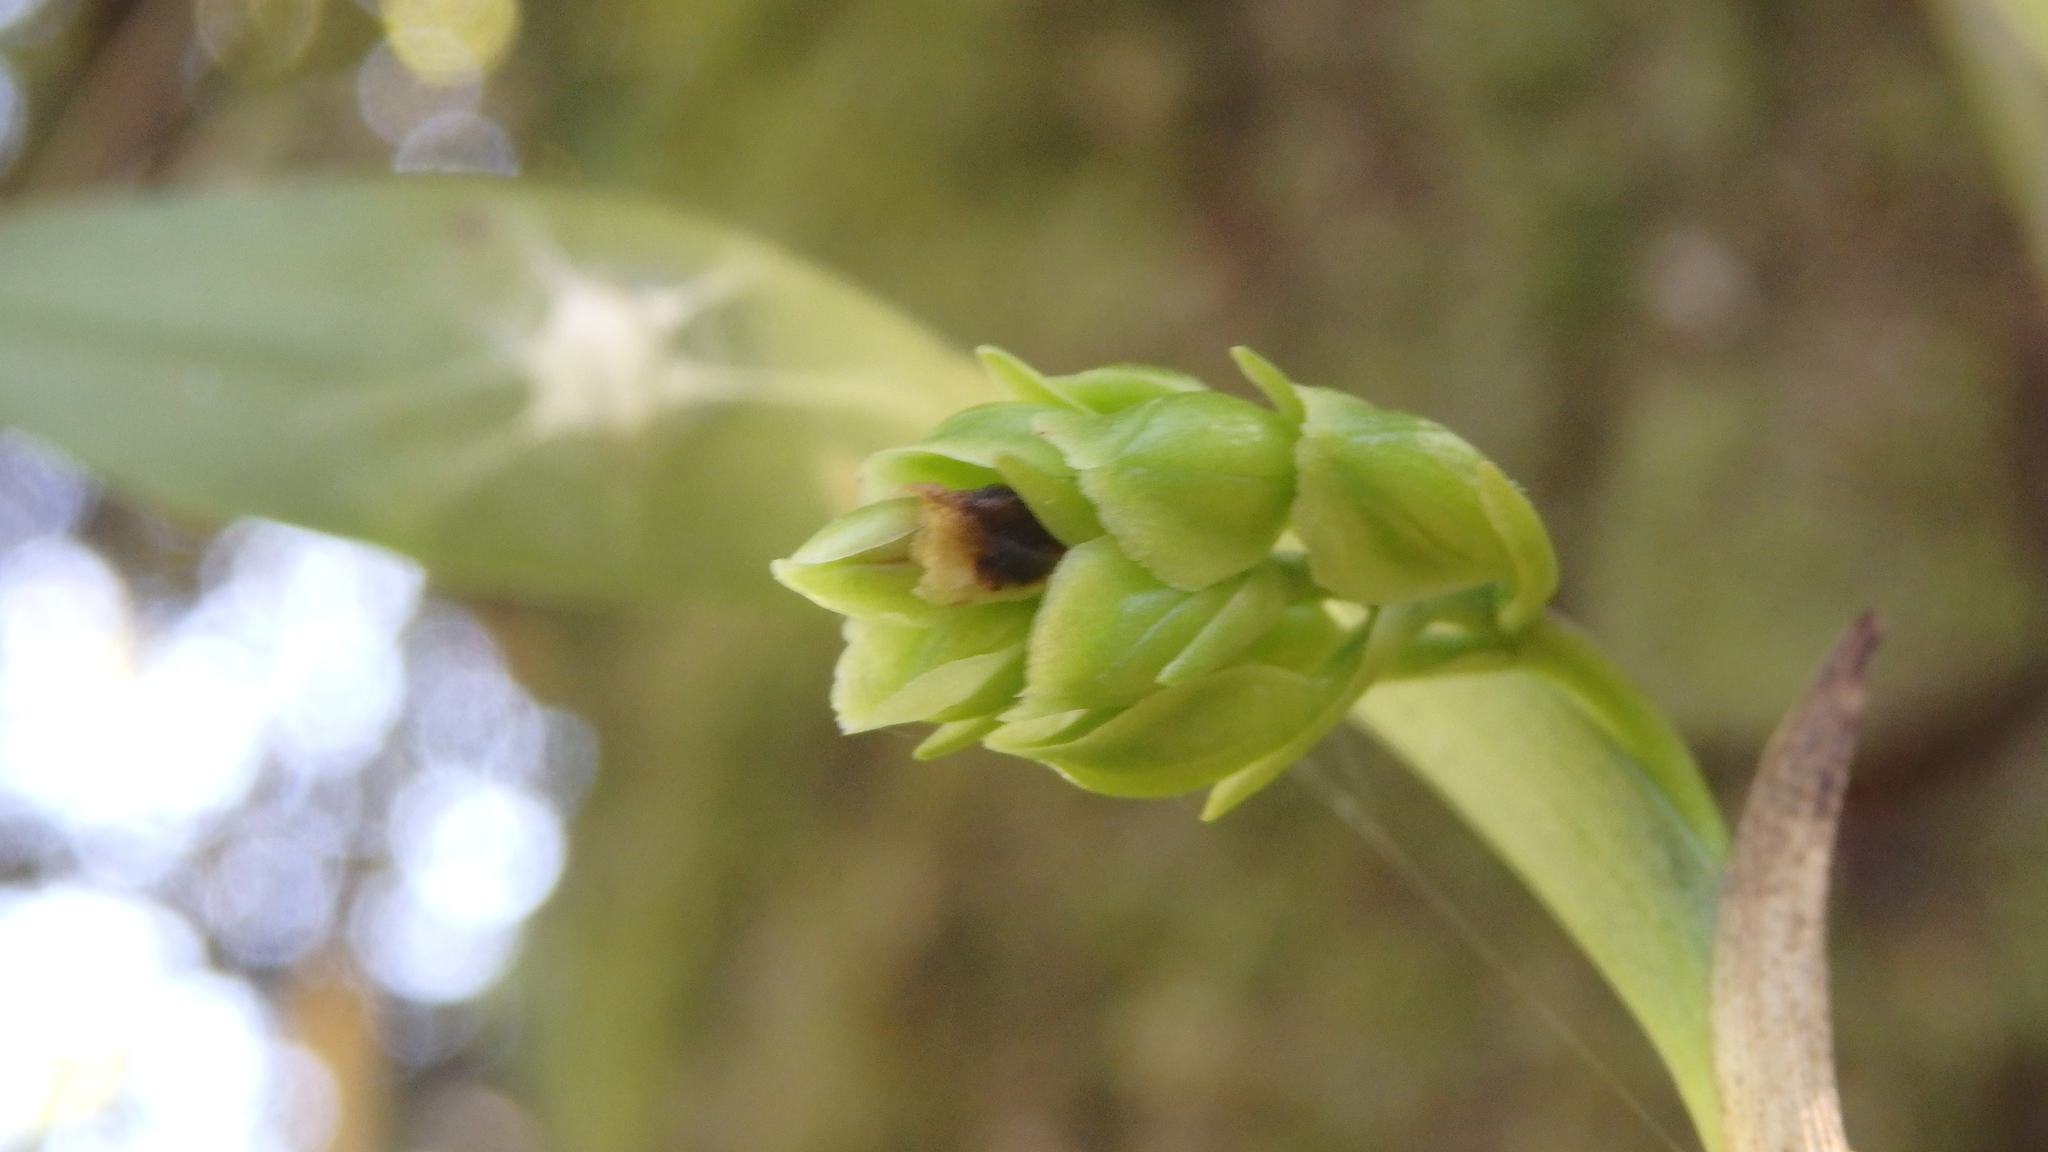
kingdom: Plantae
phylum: Tracheophyta
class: Liliopsida
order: Asparagales
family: Orchidaceae
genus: Epidendrum
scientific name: Epidendrum fruticosum
